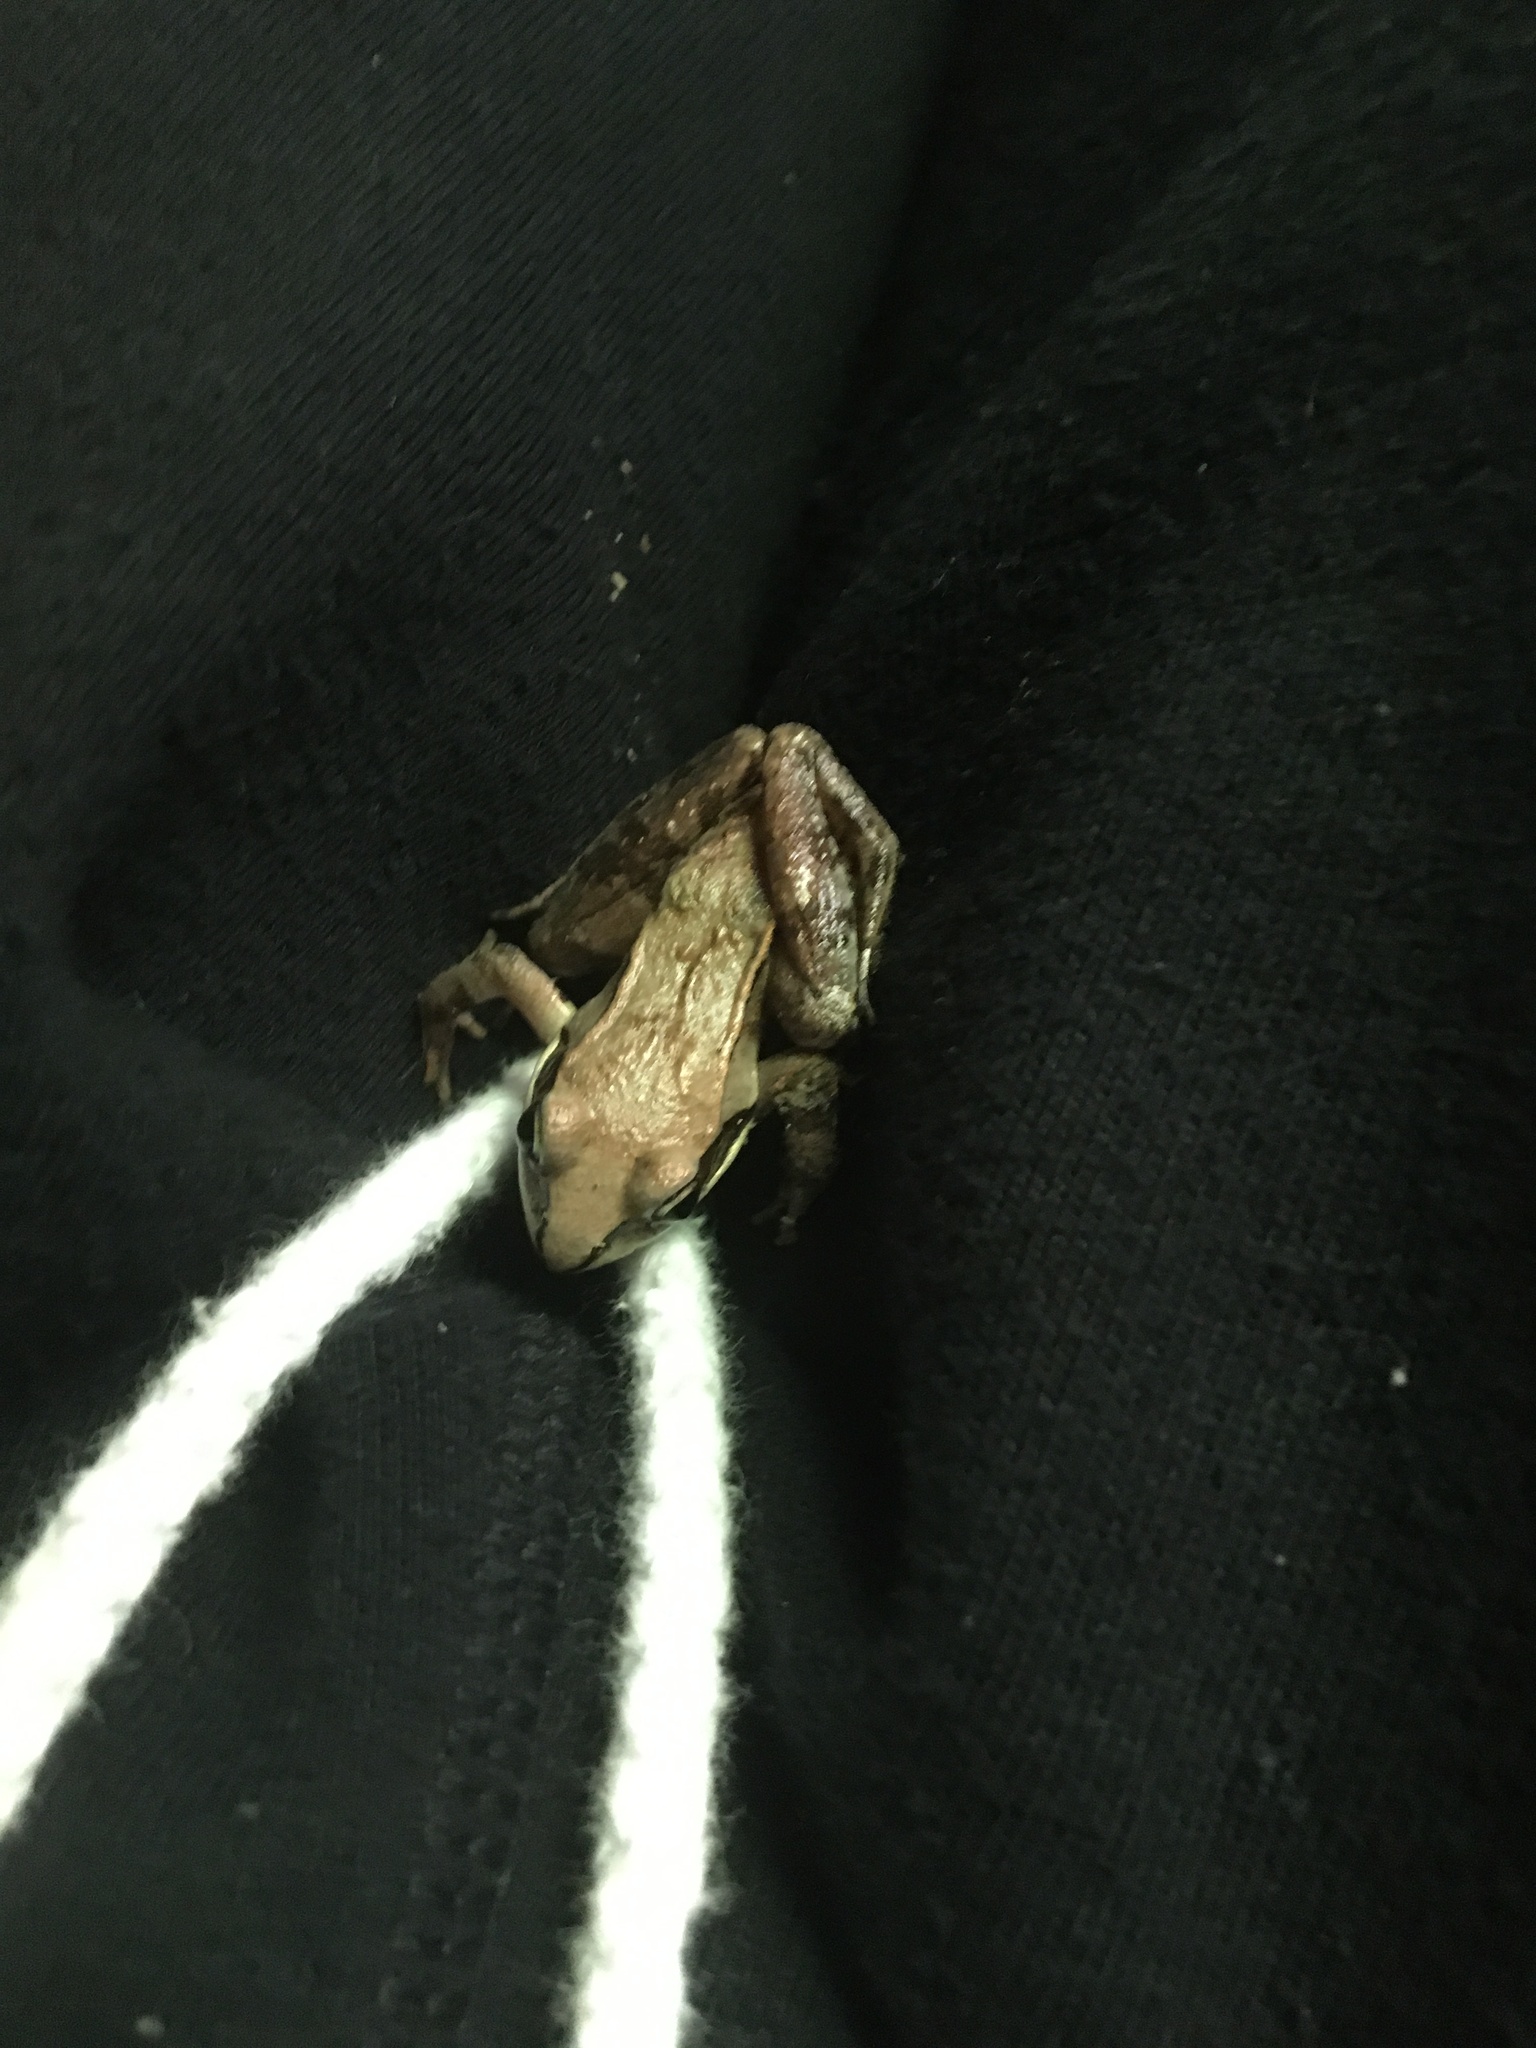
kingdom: Animalia
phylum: Chordata
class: Amphibia
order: Anura
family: Ranidae
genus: Lithobates
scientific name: Lithobates sylvaticus
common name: Wood frog
